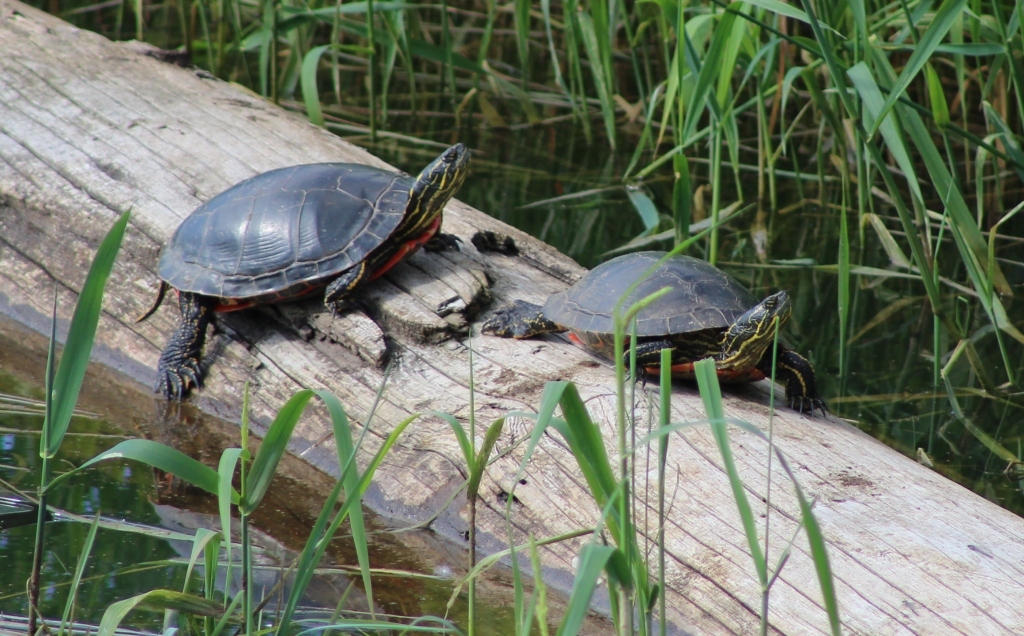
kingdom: Animalia
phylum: Chordata
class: Testudines
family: Emydidae
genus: Chrysemys
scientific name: Chrysemys picta
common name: Painted turtle
